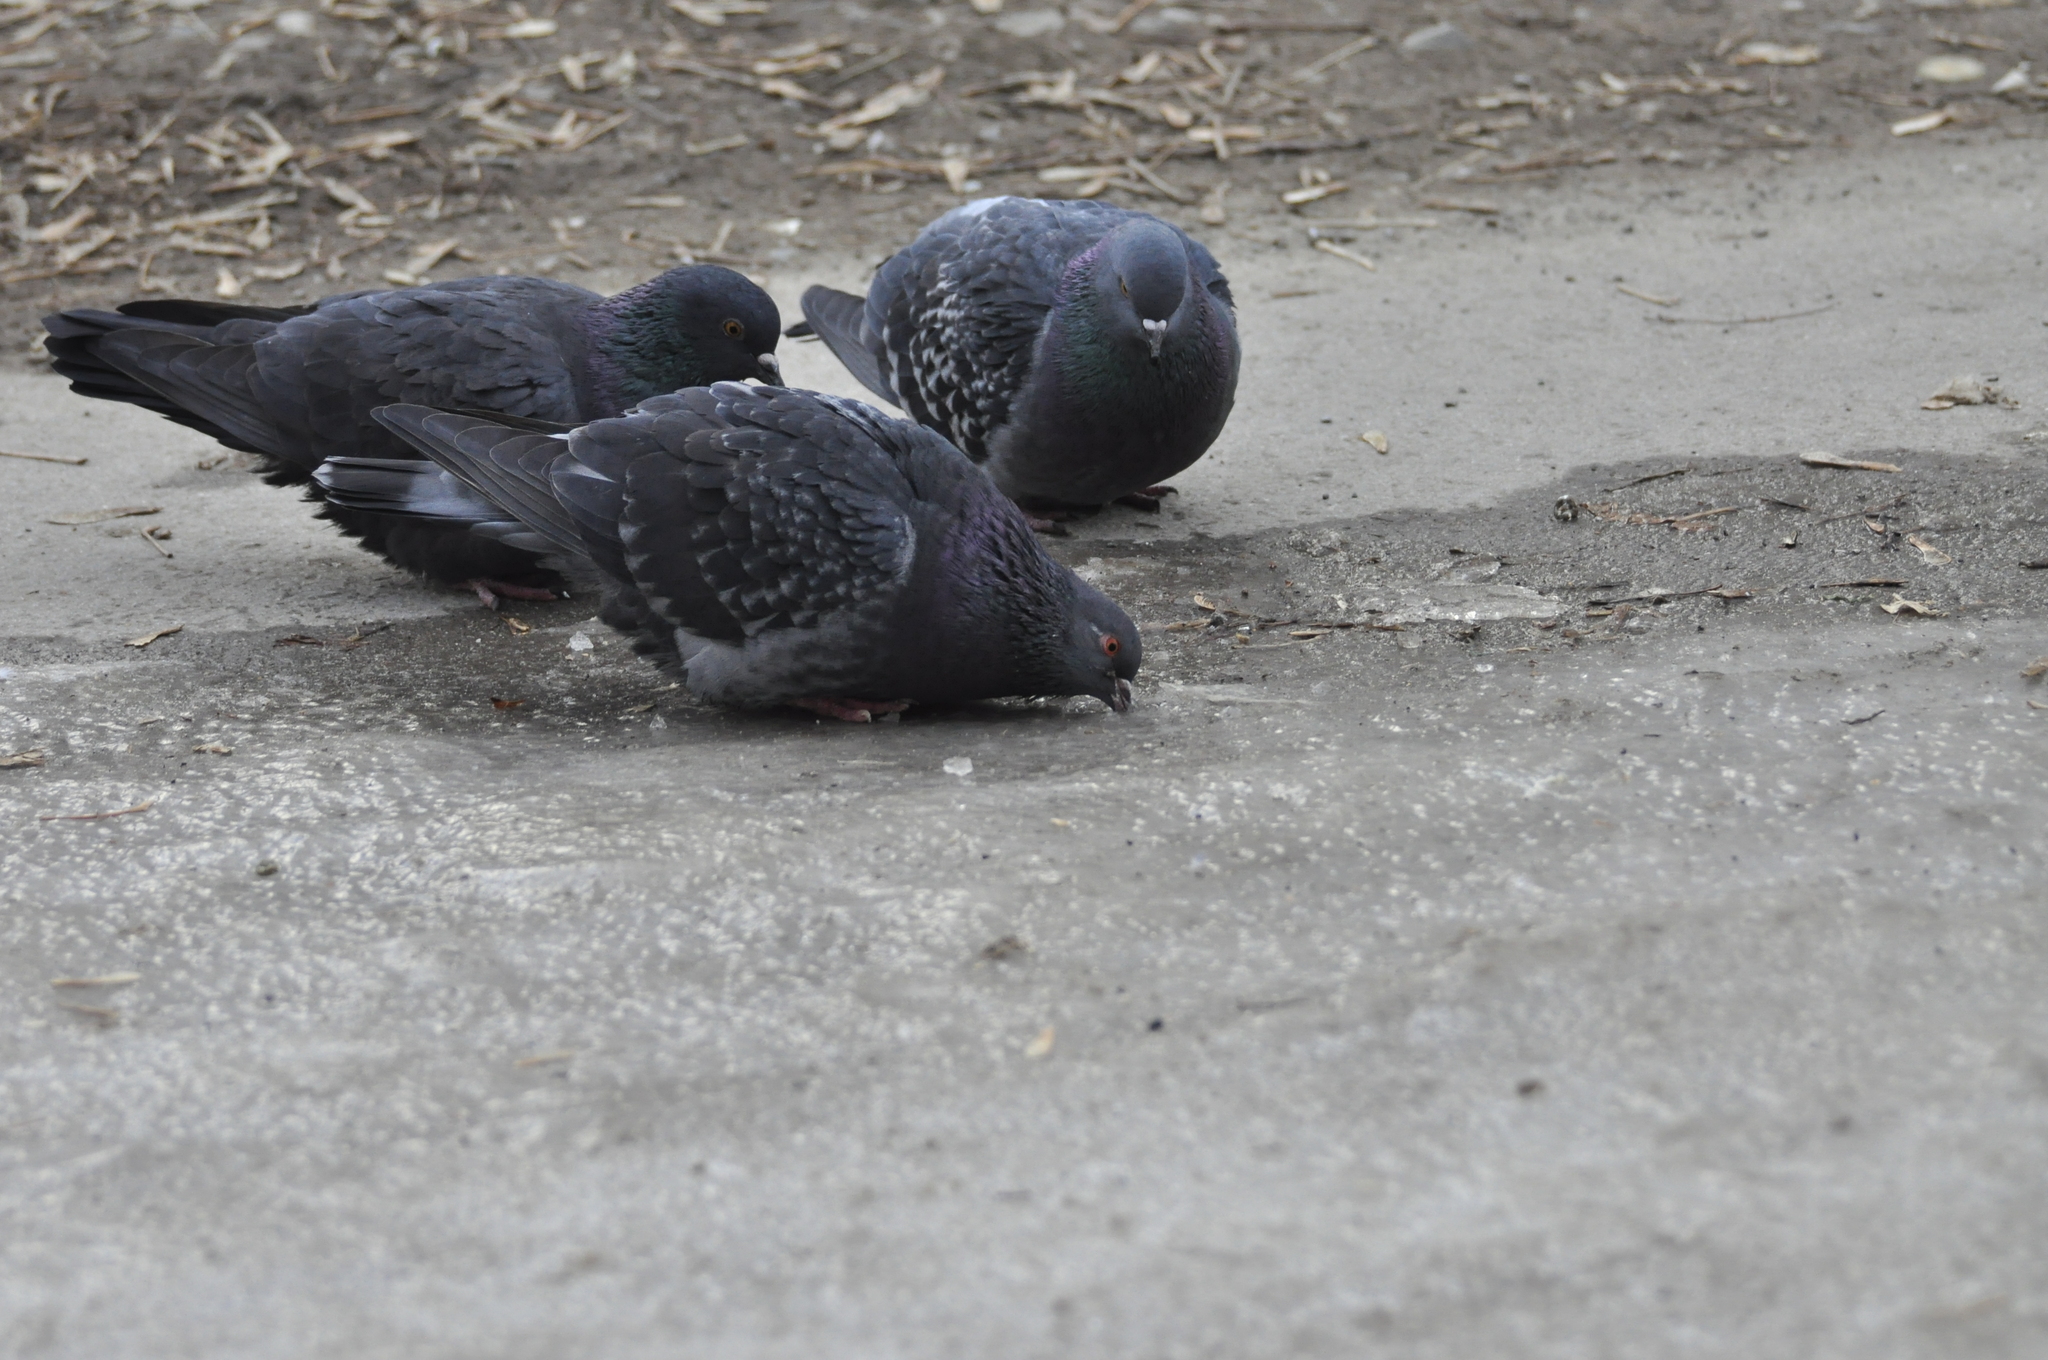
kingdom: Animalia
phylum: Chordata
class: Aves
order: Columbiformes
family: Columbidae
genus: Columba
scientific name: Columba livia
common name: Rock pigeon
